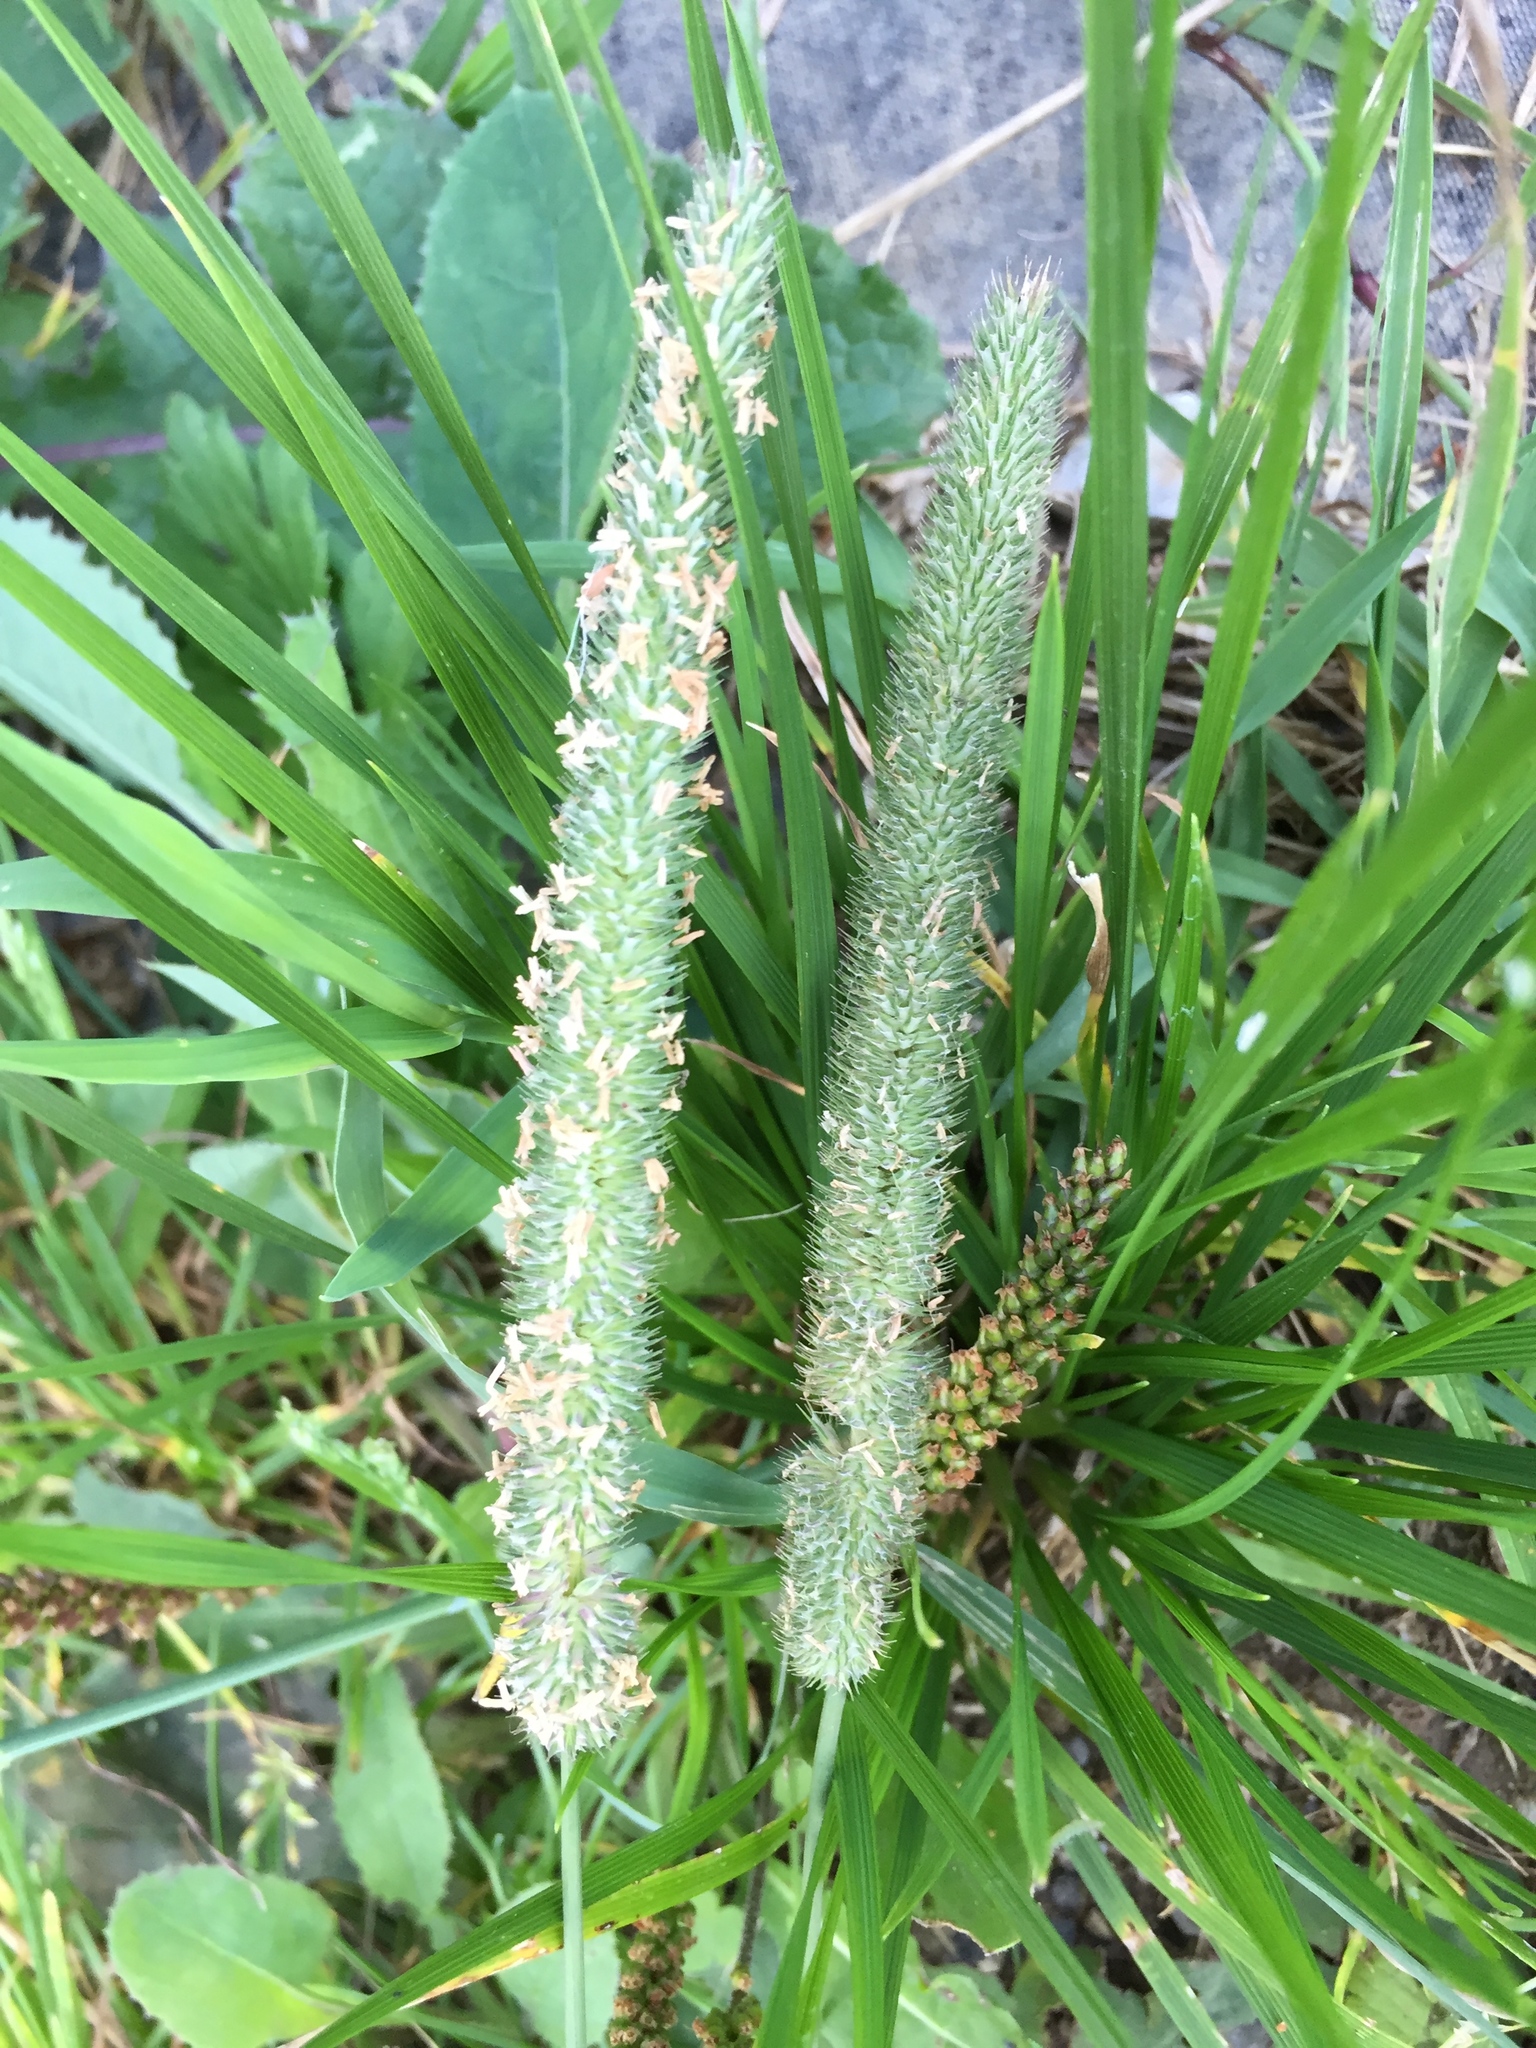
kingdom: Plantae
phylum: Tracheophyta
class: Liliopsida
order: Poales
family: Poaceae
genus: Phleum
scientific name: Phleum pratense
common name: Timothy grass
